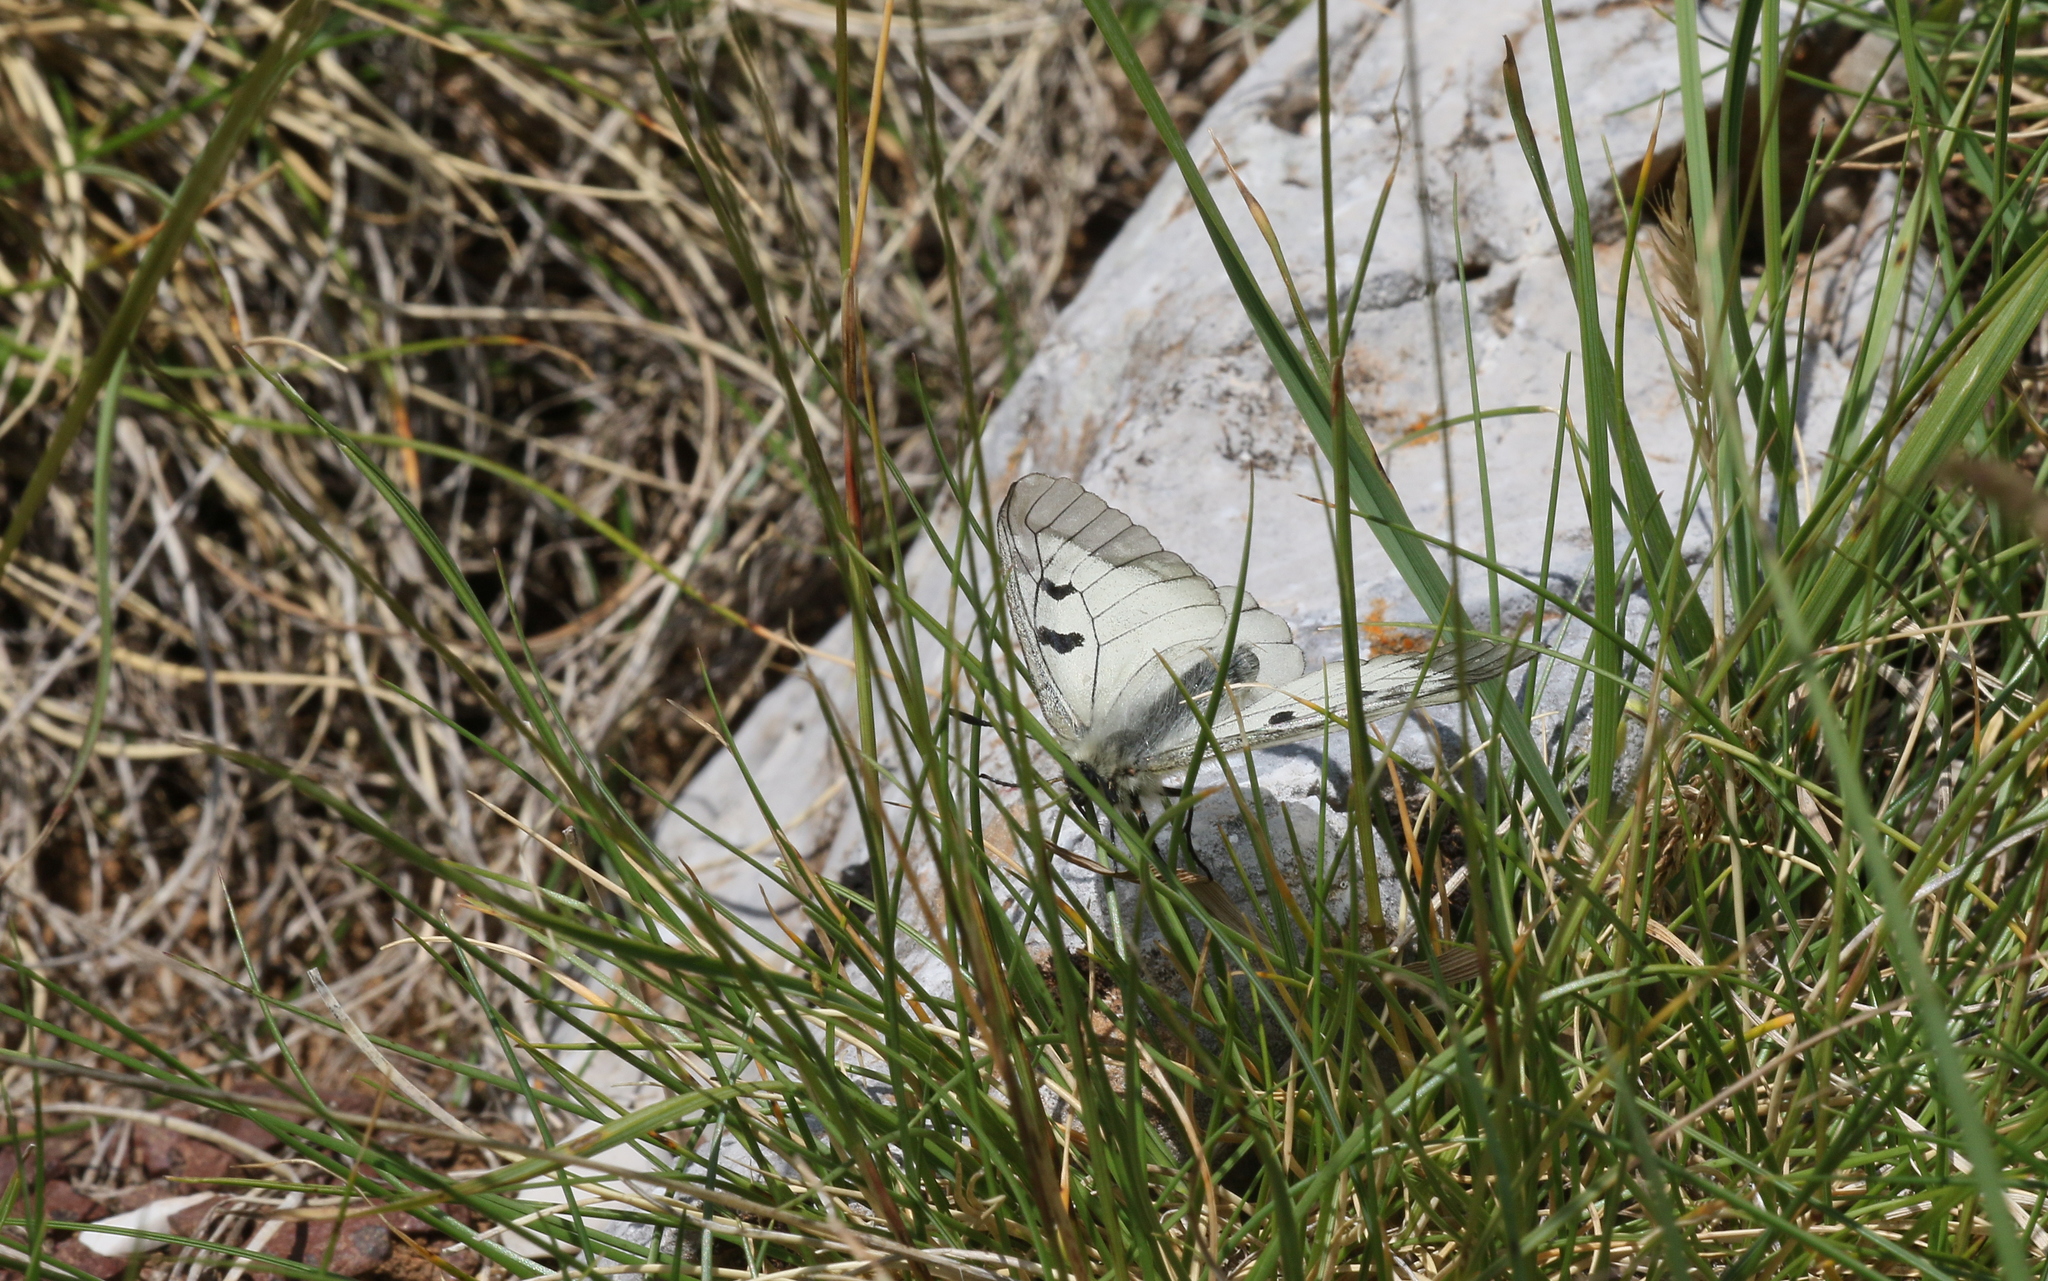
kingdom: Animalia
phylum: Arthropoda
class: Insecta
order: Lepidoptera
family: Papilionidae
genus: Parnassius
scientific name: Parnassius mnemosyne
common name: Clouded apollo
